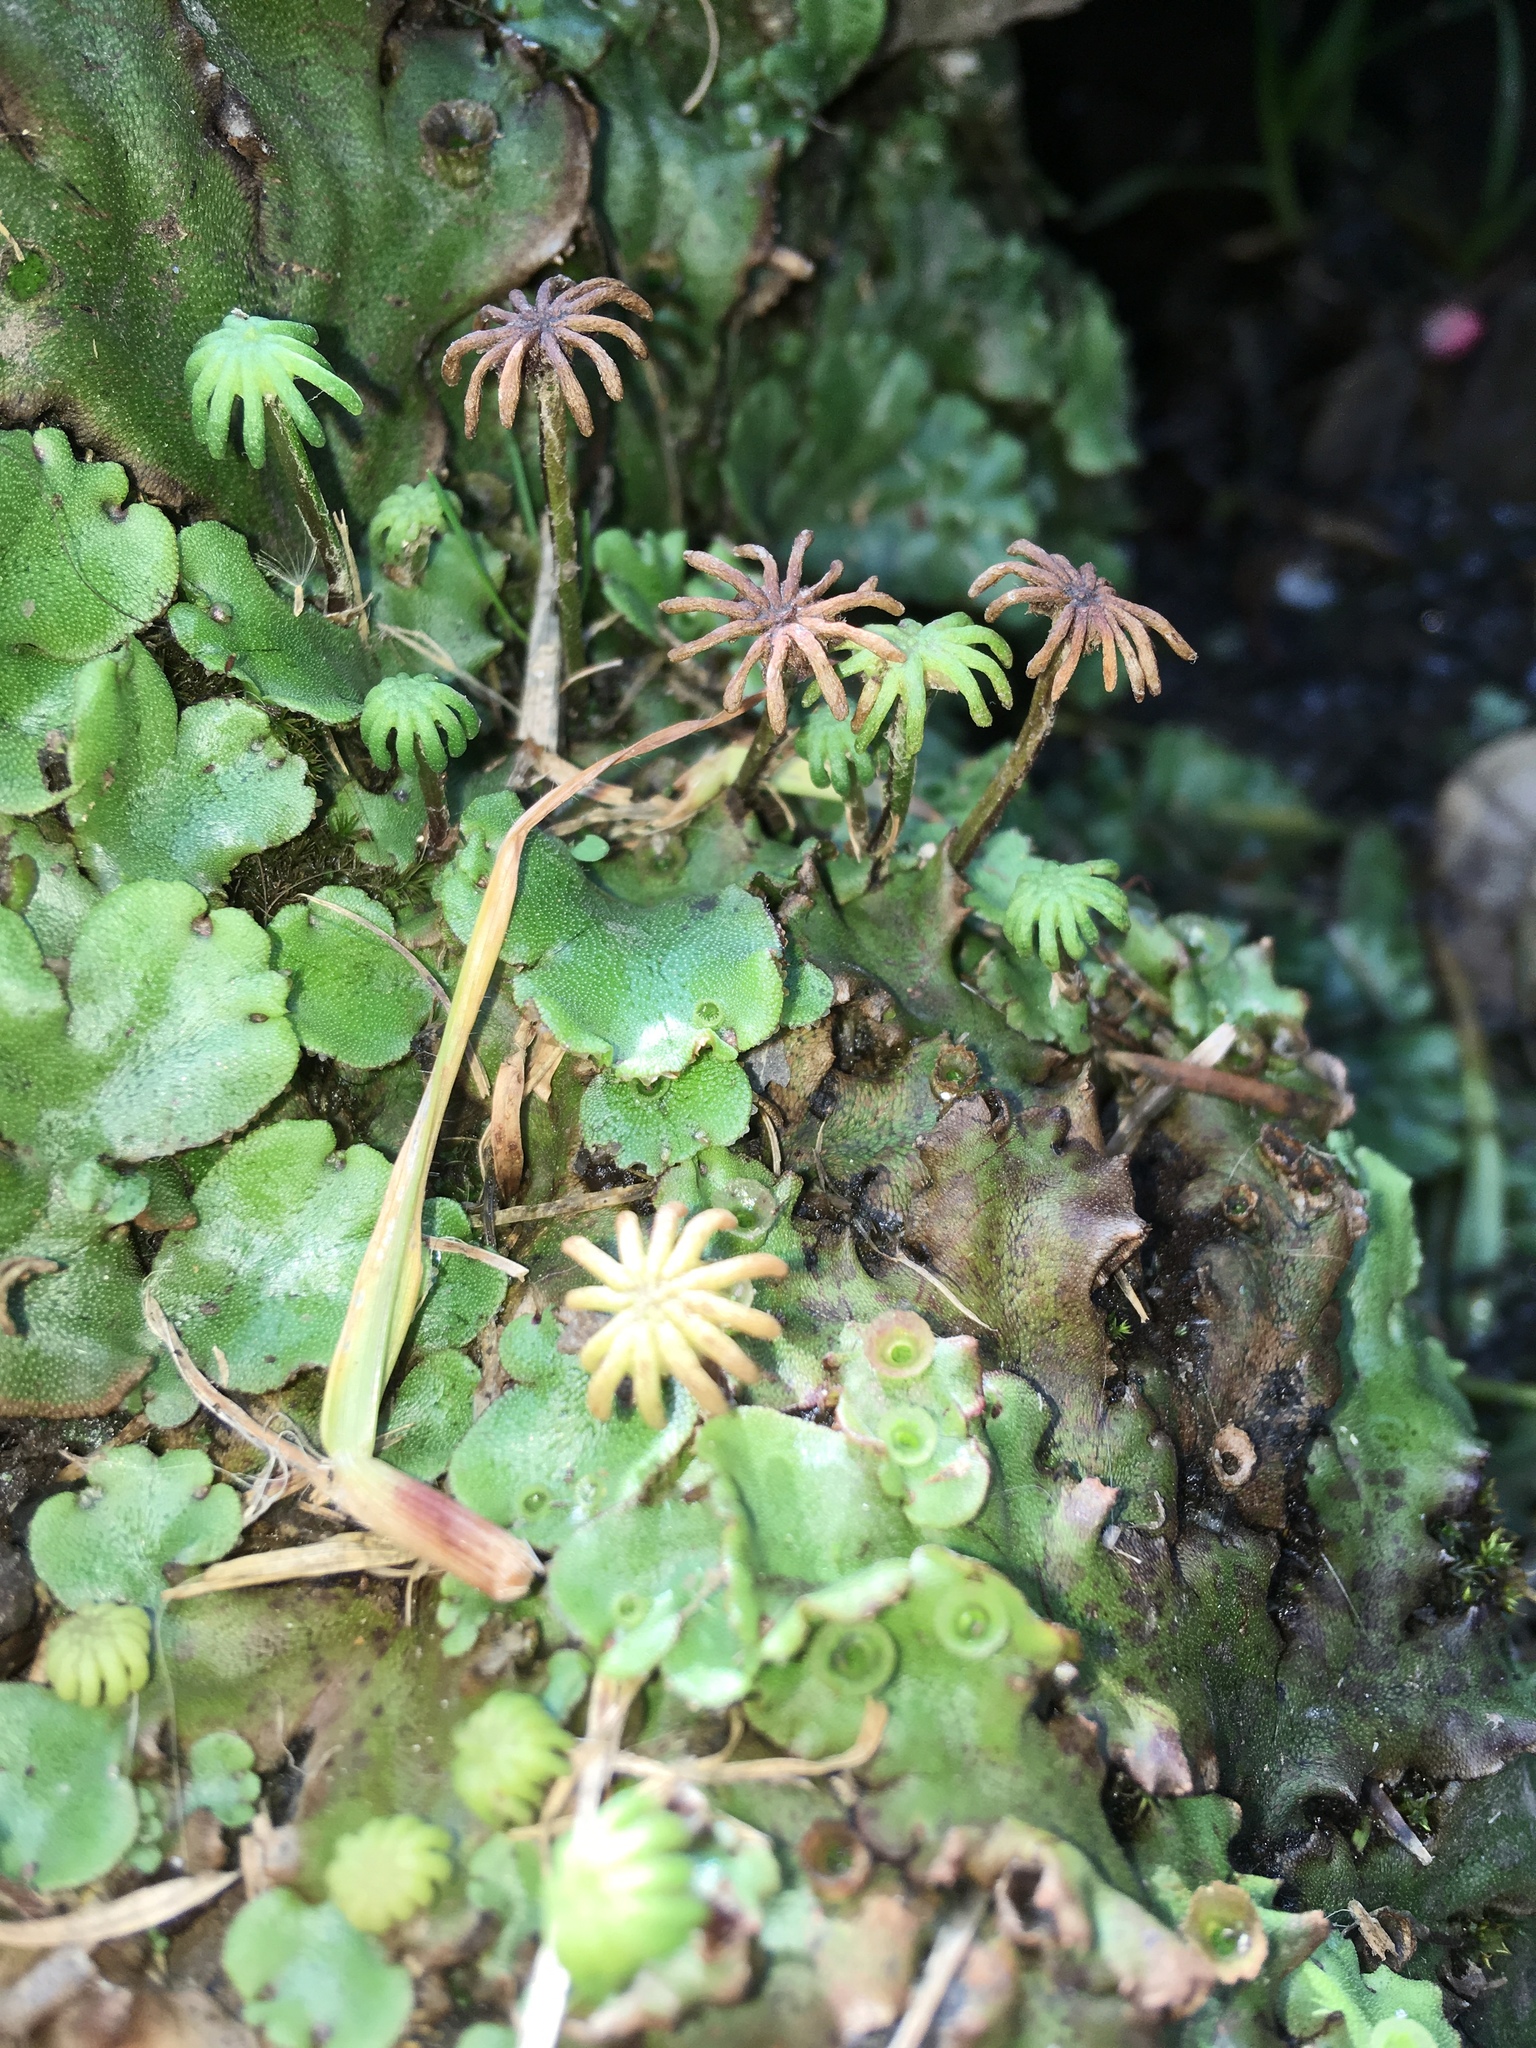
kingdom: Plantae
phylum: Marchantiophyta
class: Marchantiopsida
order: Marchantiales
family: Marchantiaceae
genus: Marchantia
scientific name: Marchantia polymorpha
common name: Common liverwort
